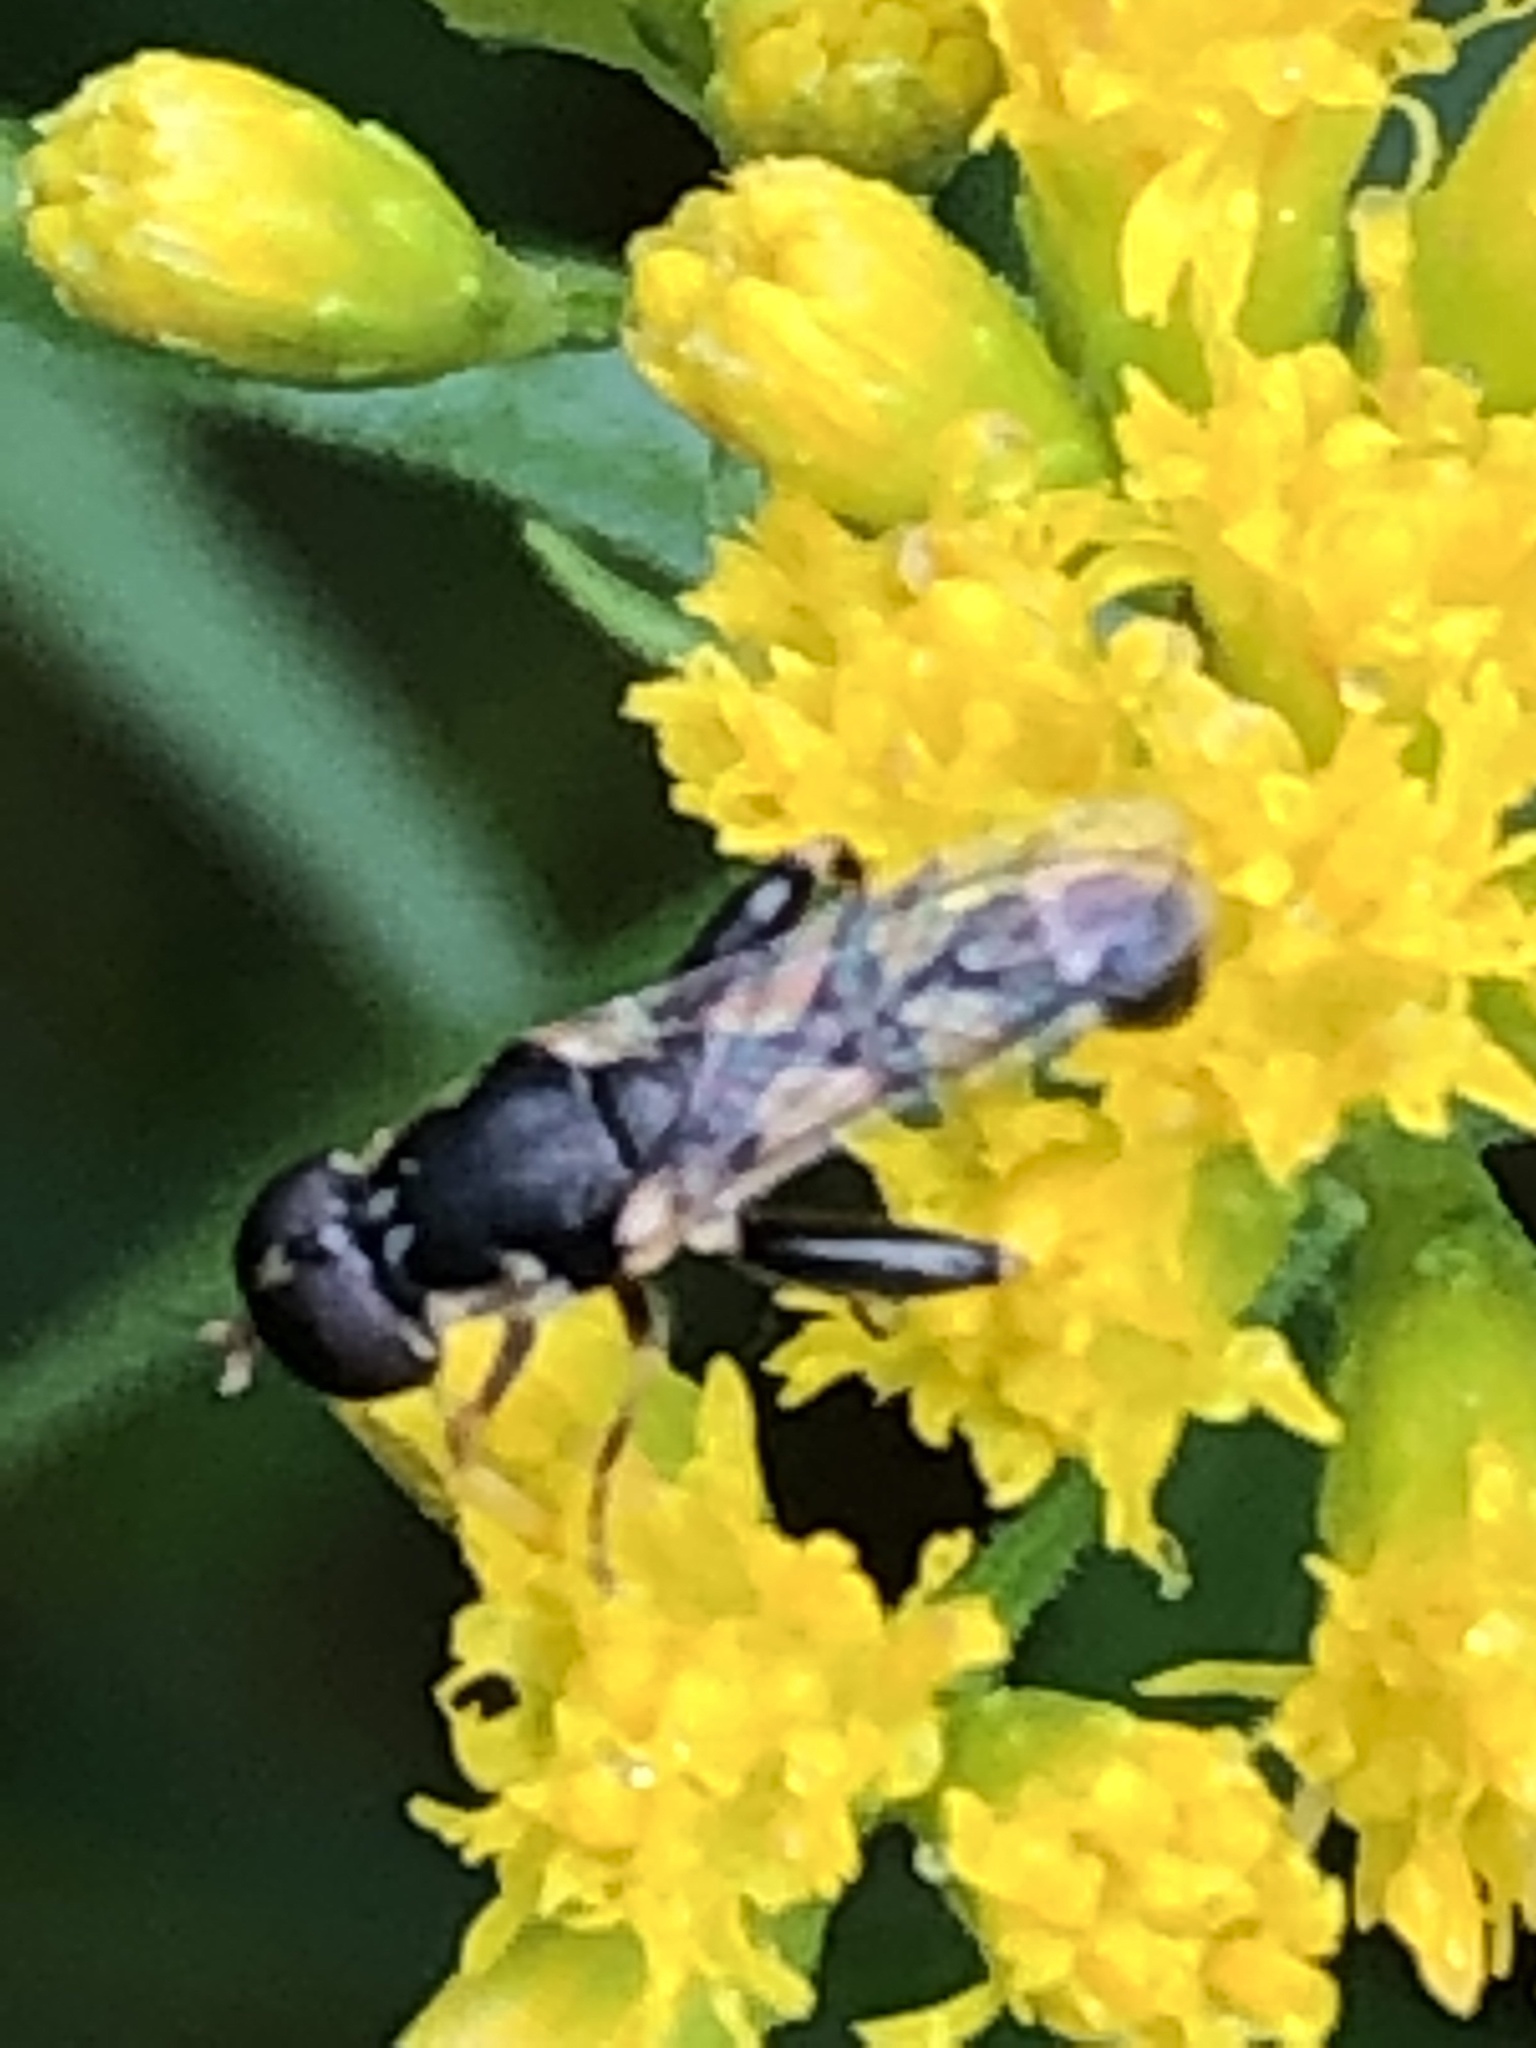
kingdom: Animalia
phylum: Arthropoda
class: Insecta
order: Diptera
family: Syrphidae
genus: Syritta
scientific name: Syritta pipiens
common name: Hover fly
